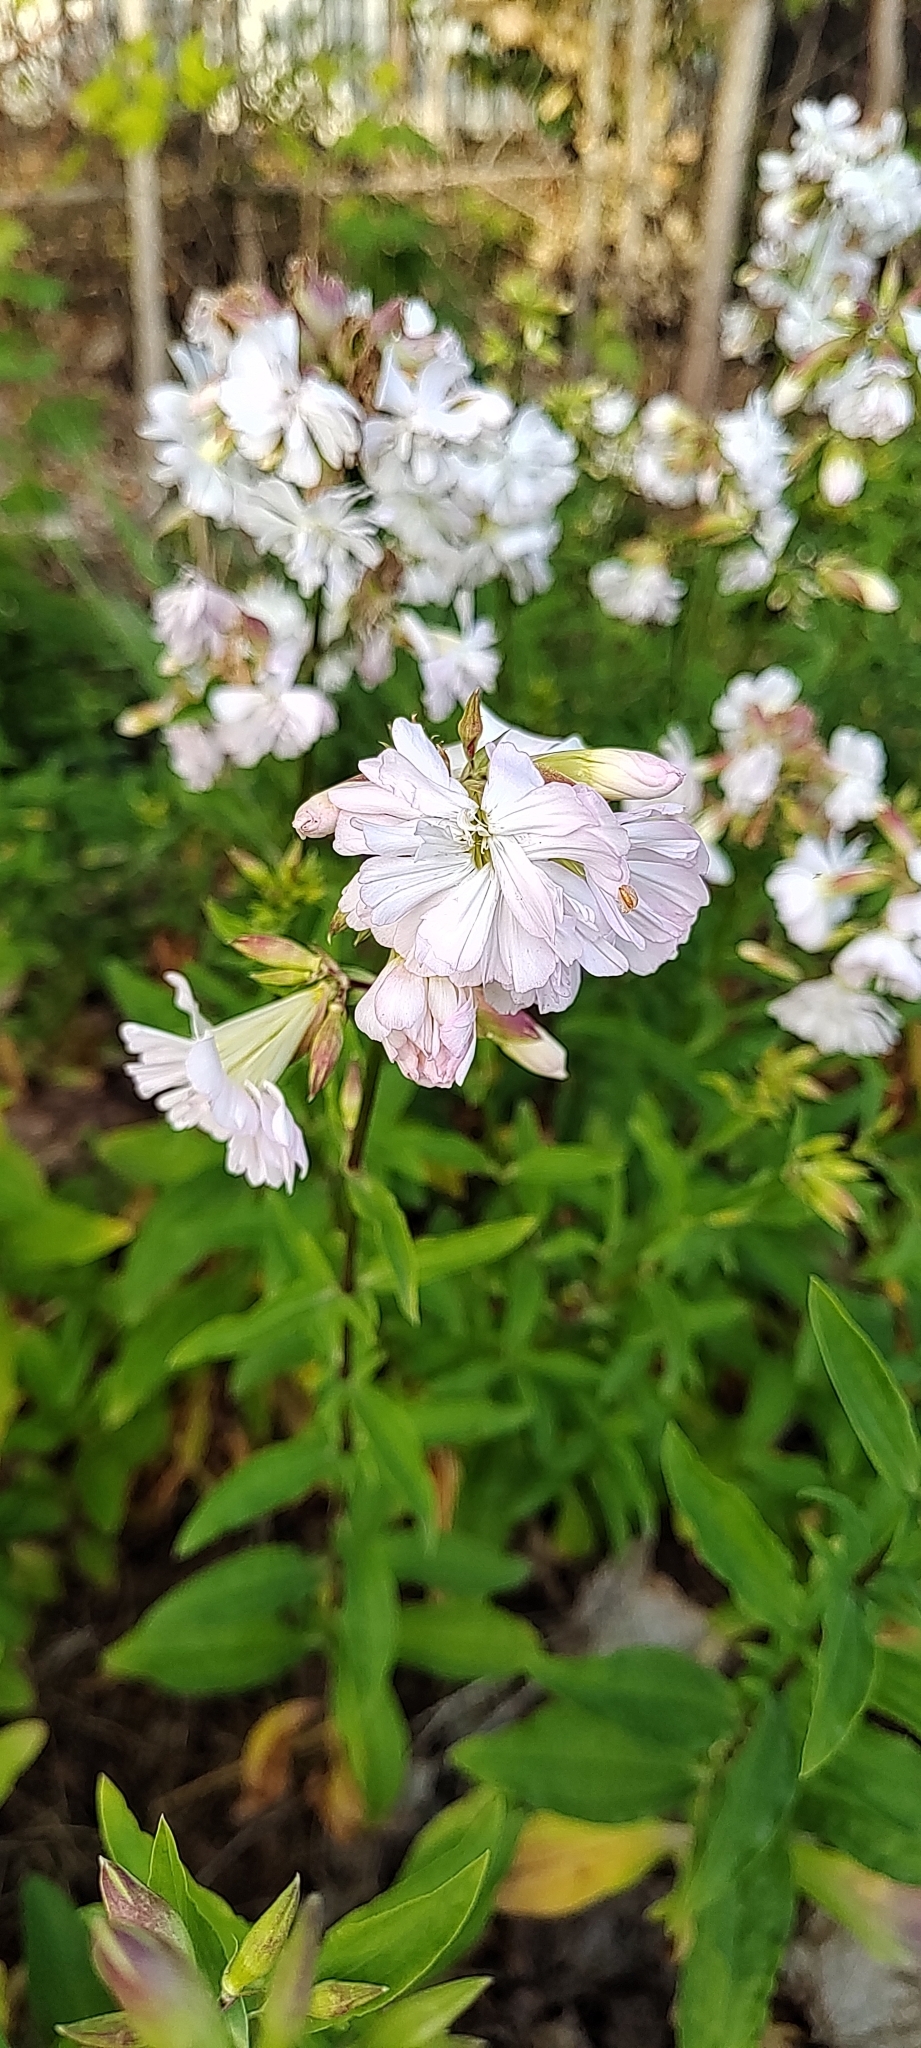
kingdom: Plantae
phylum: Tracheophyta
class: Magnoliopsida
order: Caryophyllales
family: Caryophyllaceae
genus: Saponaria
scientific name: Saponaria officinalis
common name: Soapwort
